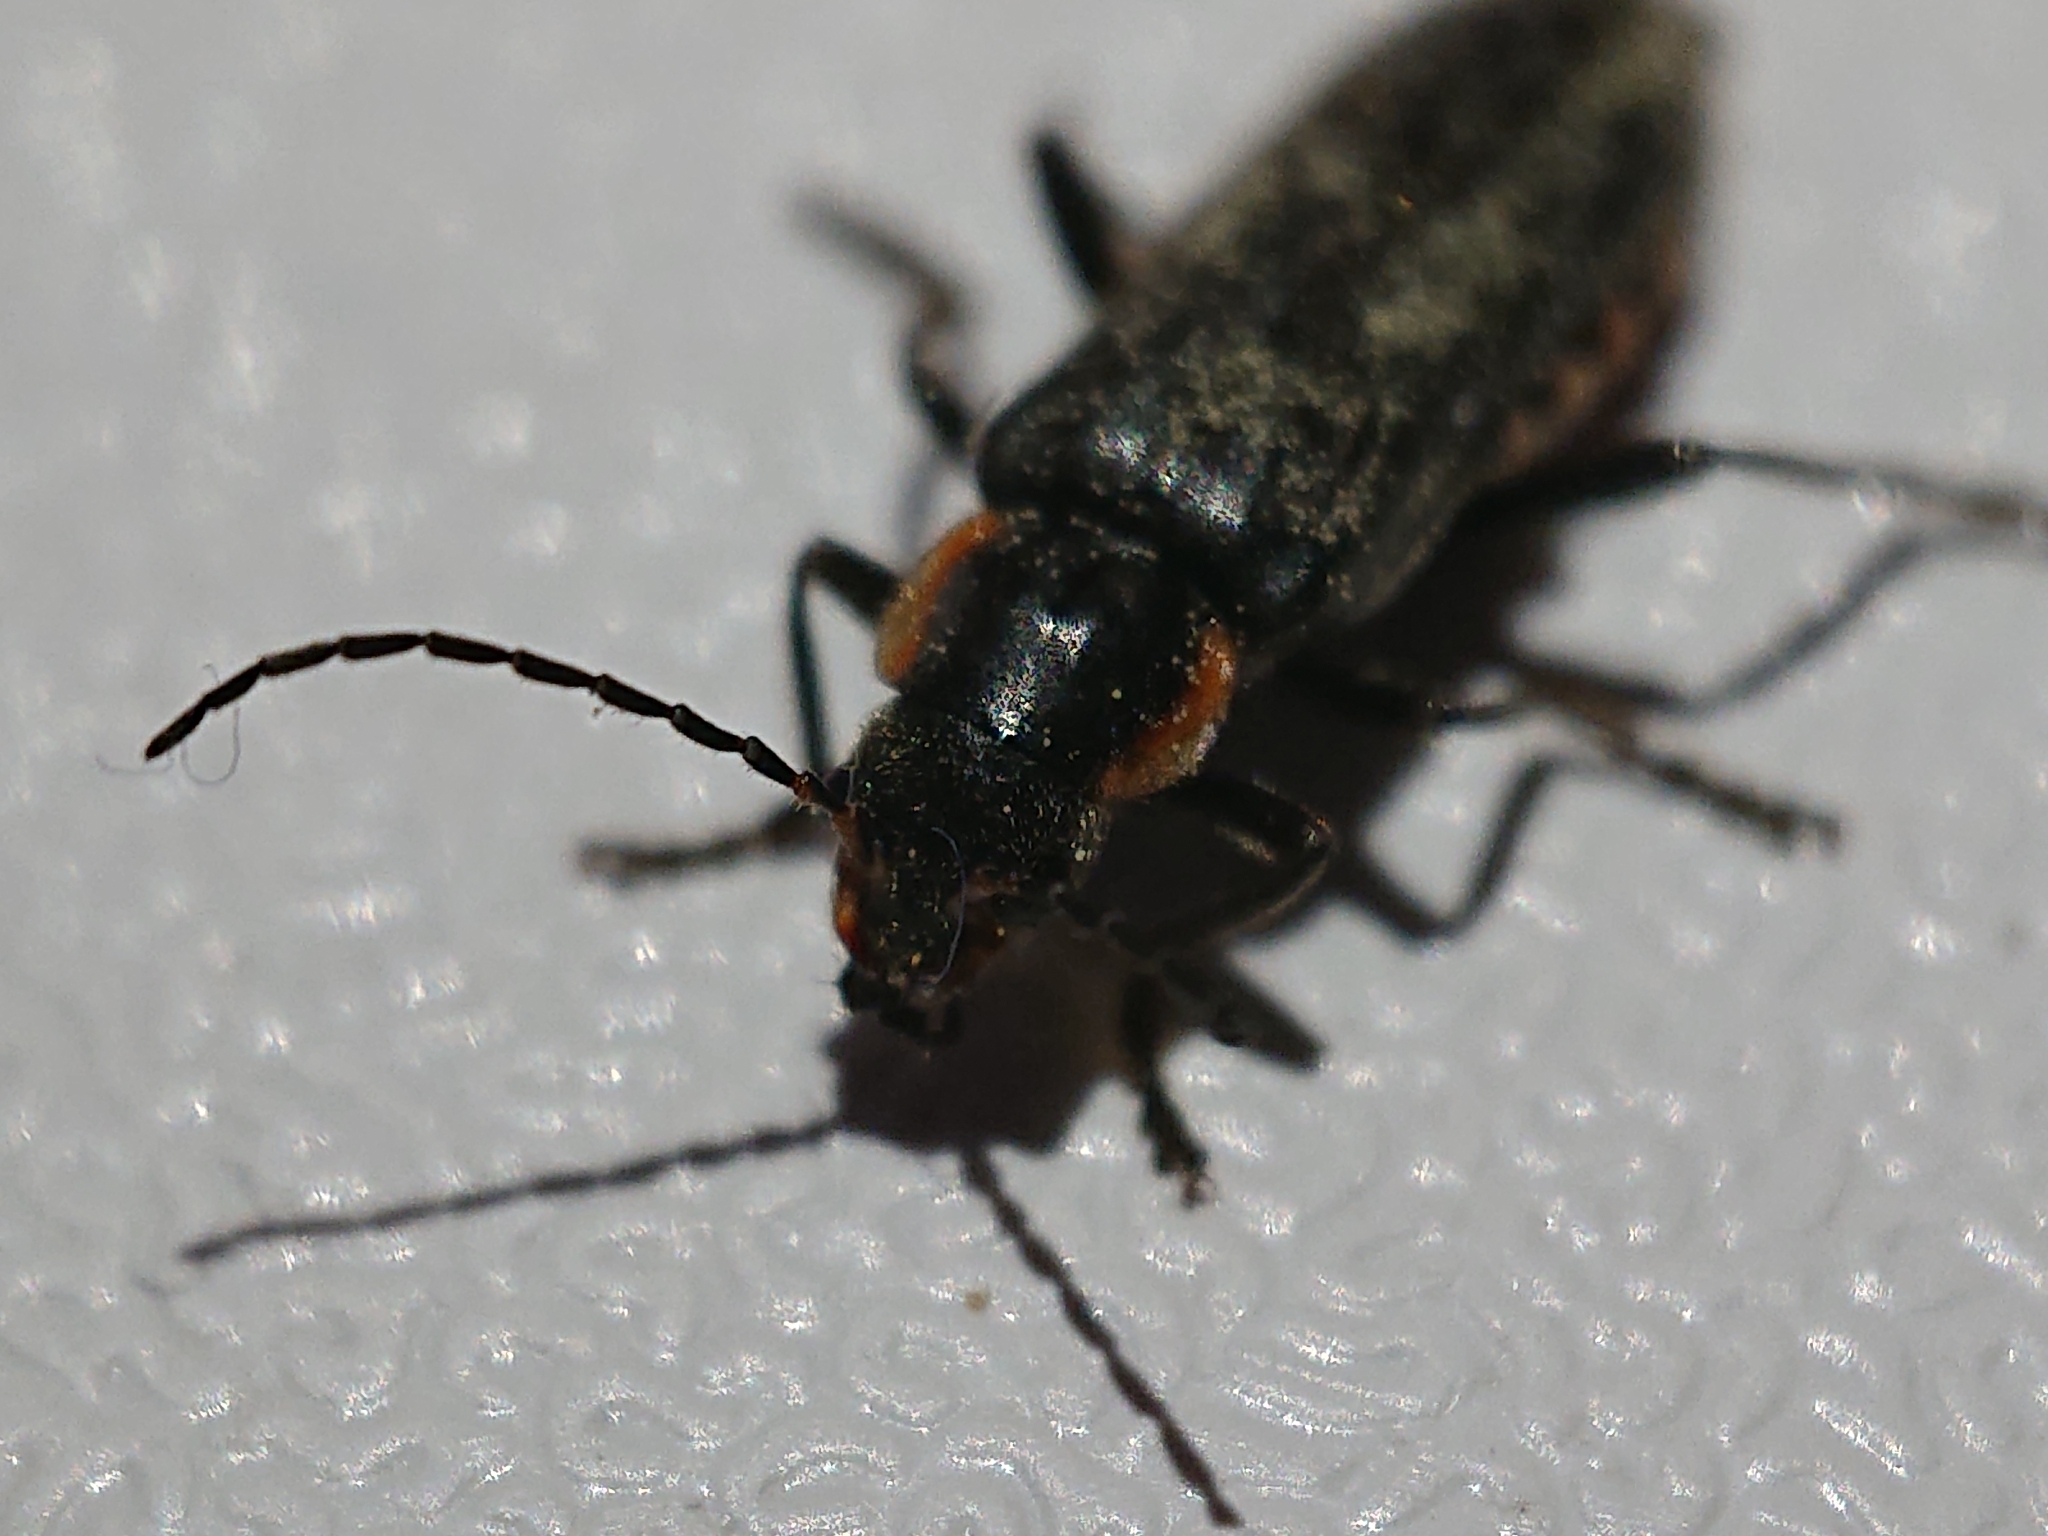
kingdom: Animalia
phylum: Arthropoda
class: Insecta
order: Coleoptera
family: Cantharidae
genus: Cantharis
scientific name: Cantharis obscura
